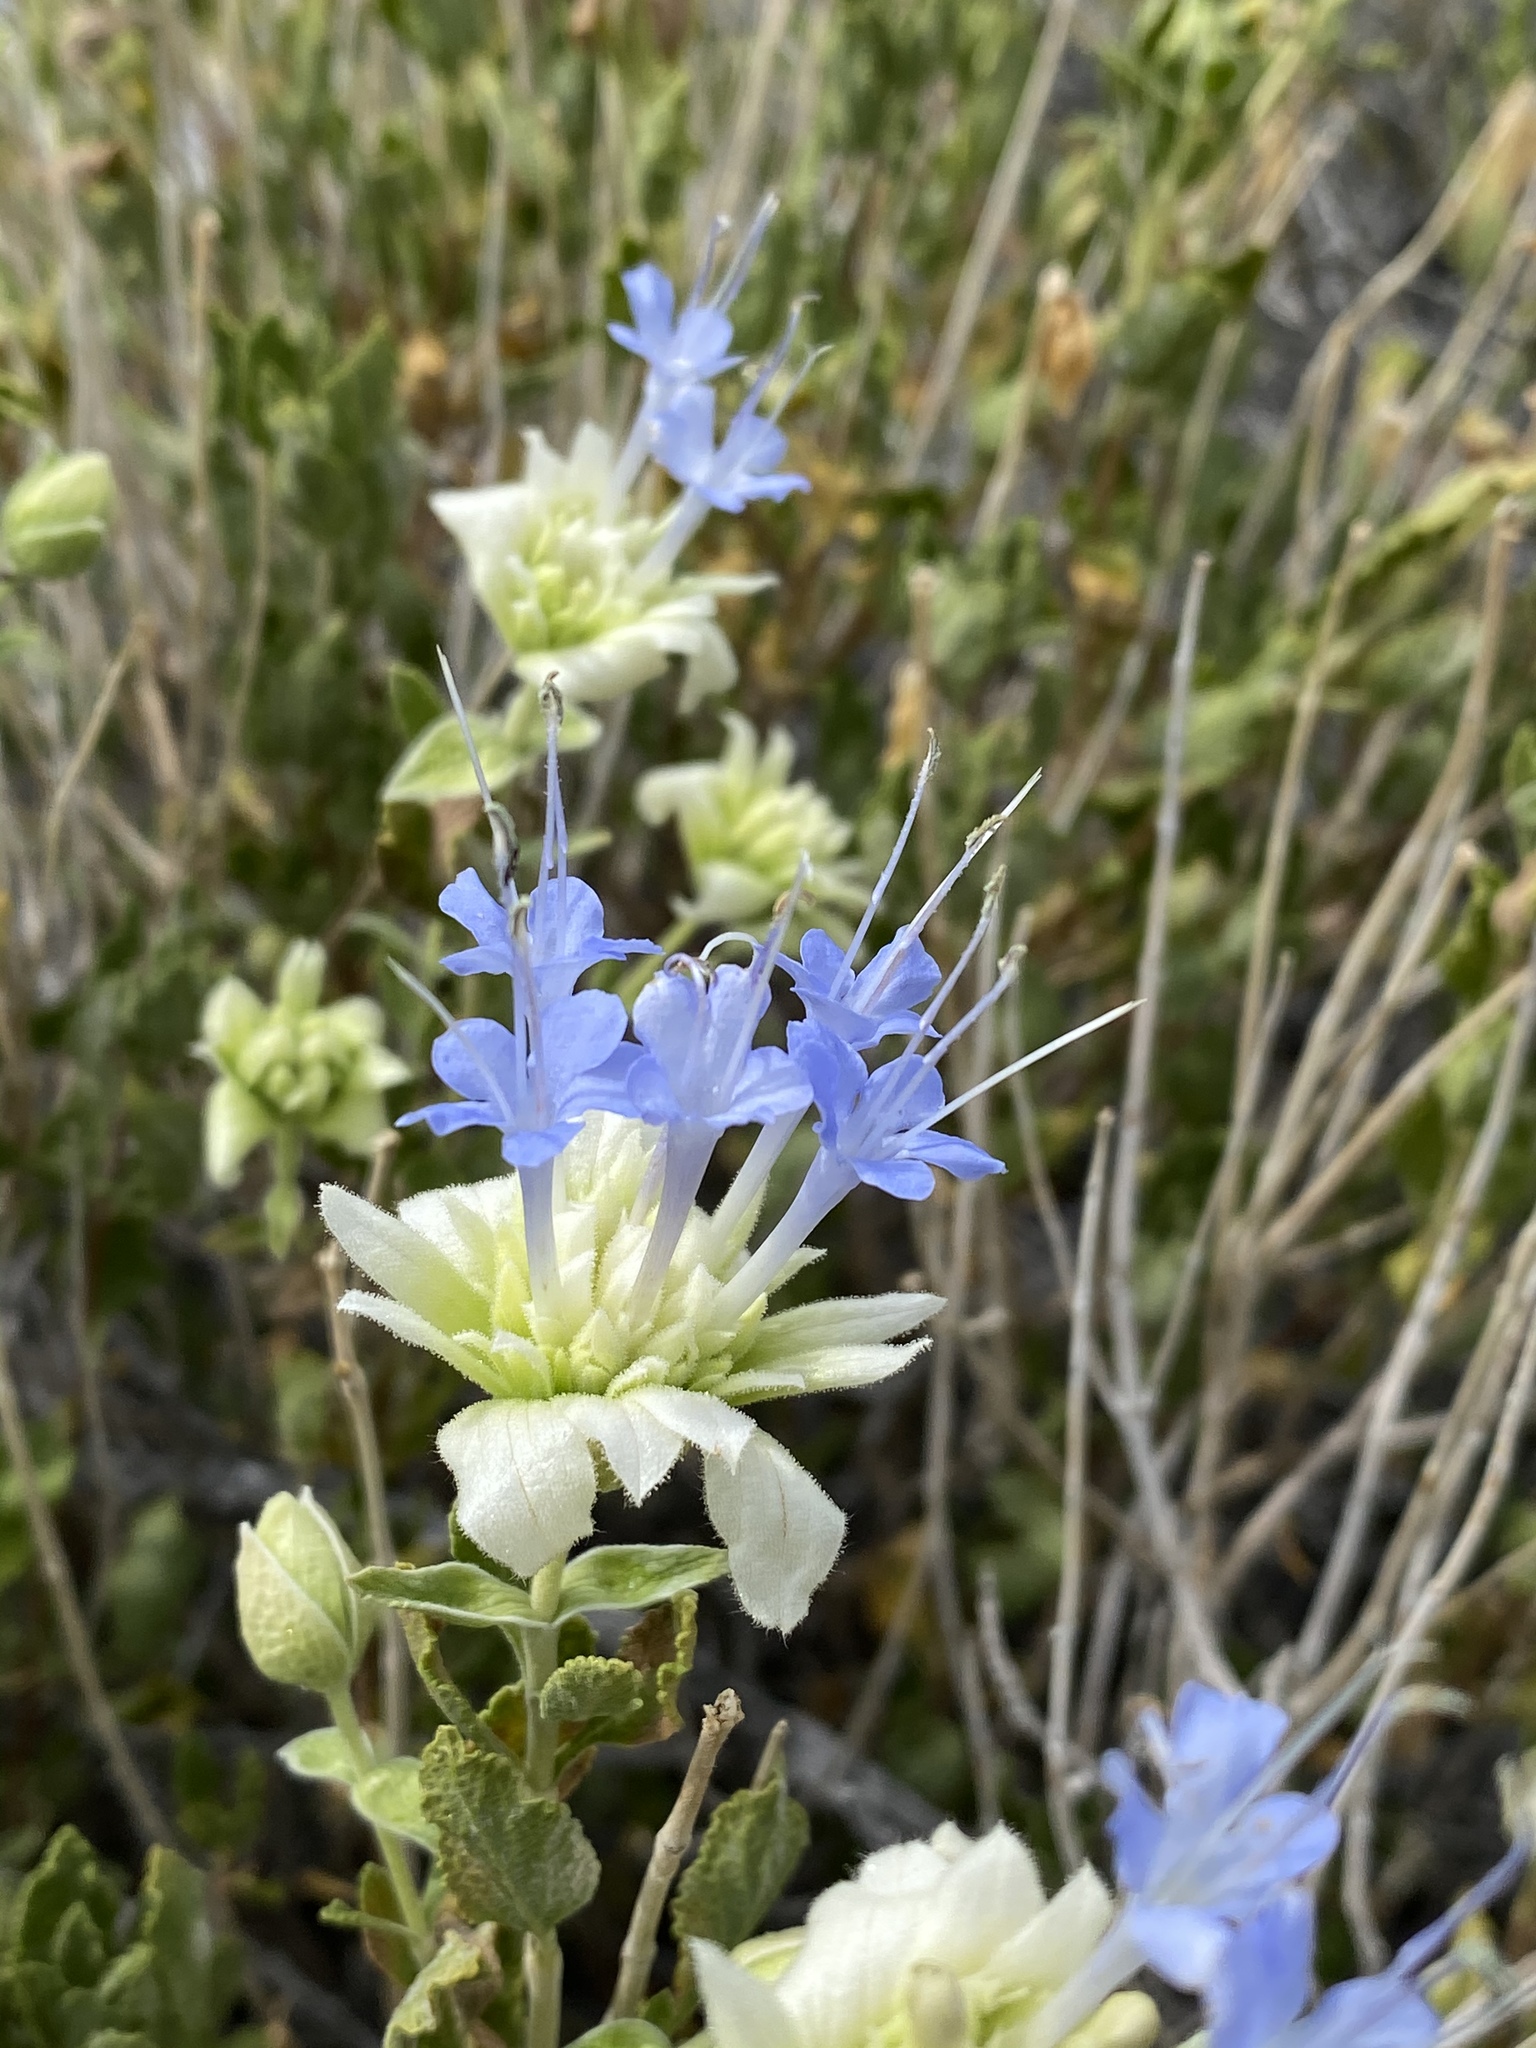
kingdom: Plantae
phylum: Tracheophyta
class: Magnoliopsida
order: Lamiales
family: Lamiaceae
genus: Salvia
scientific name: Salvia mohavensis
